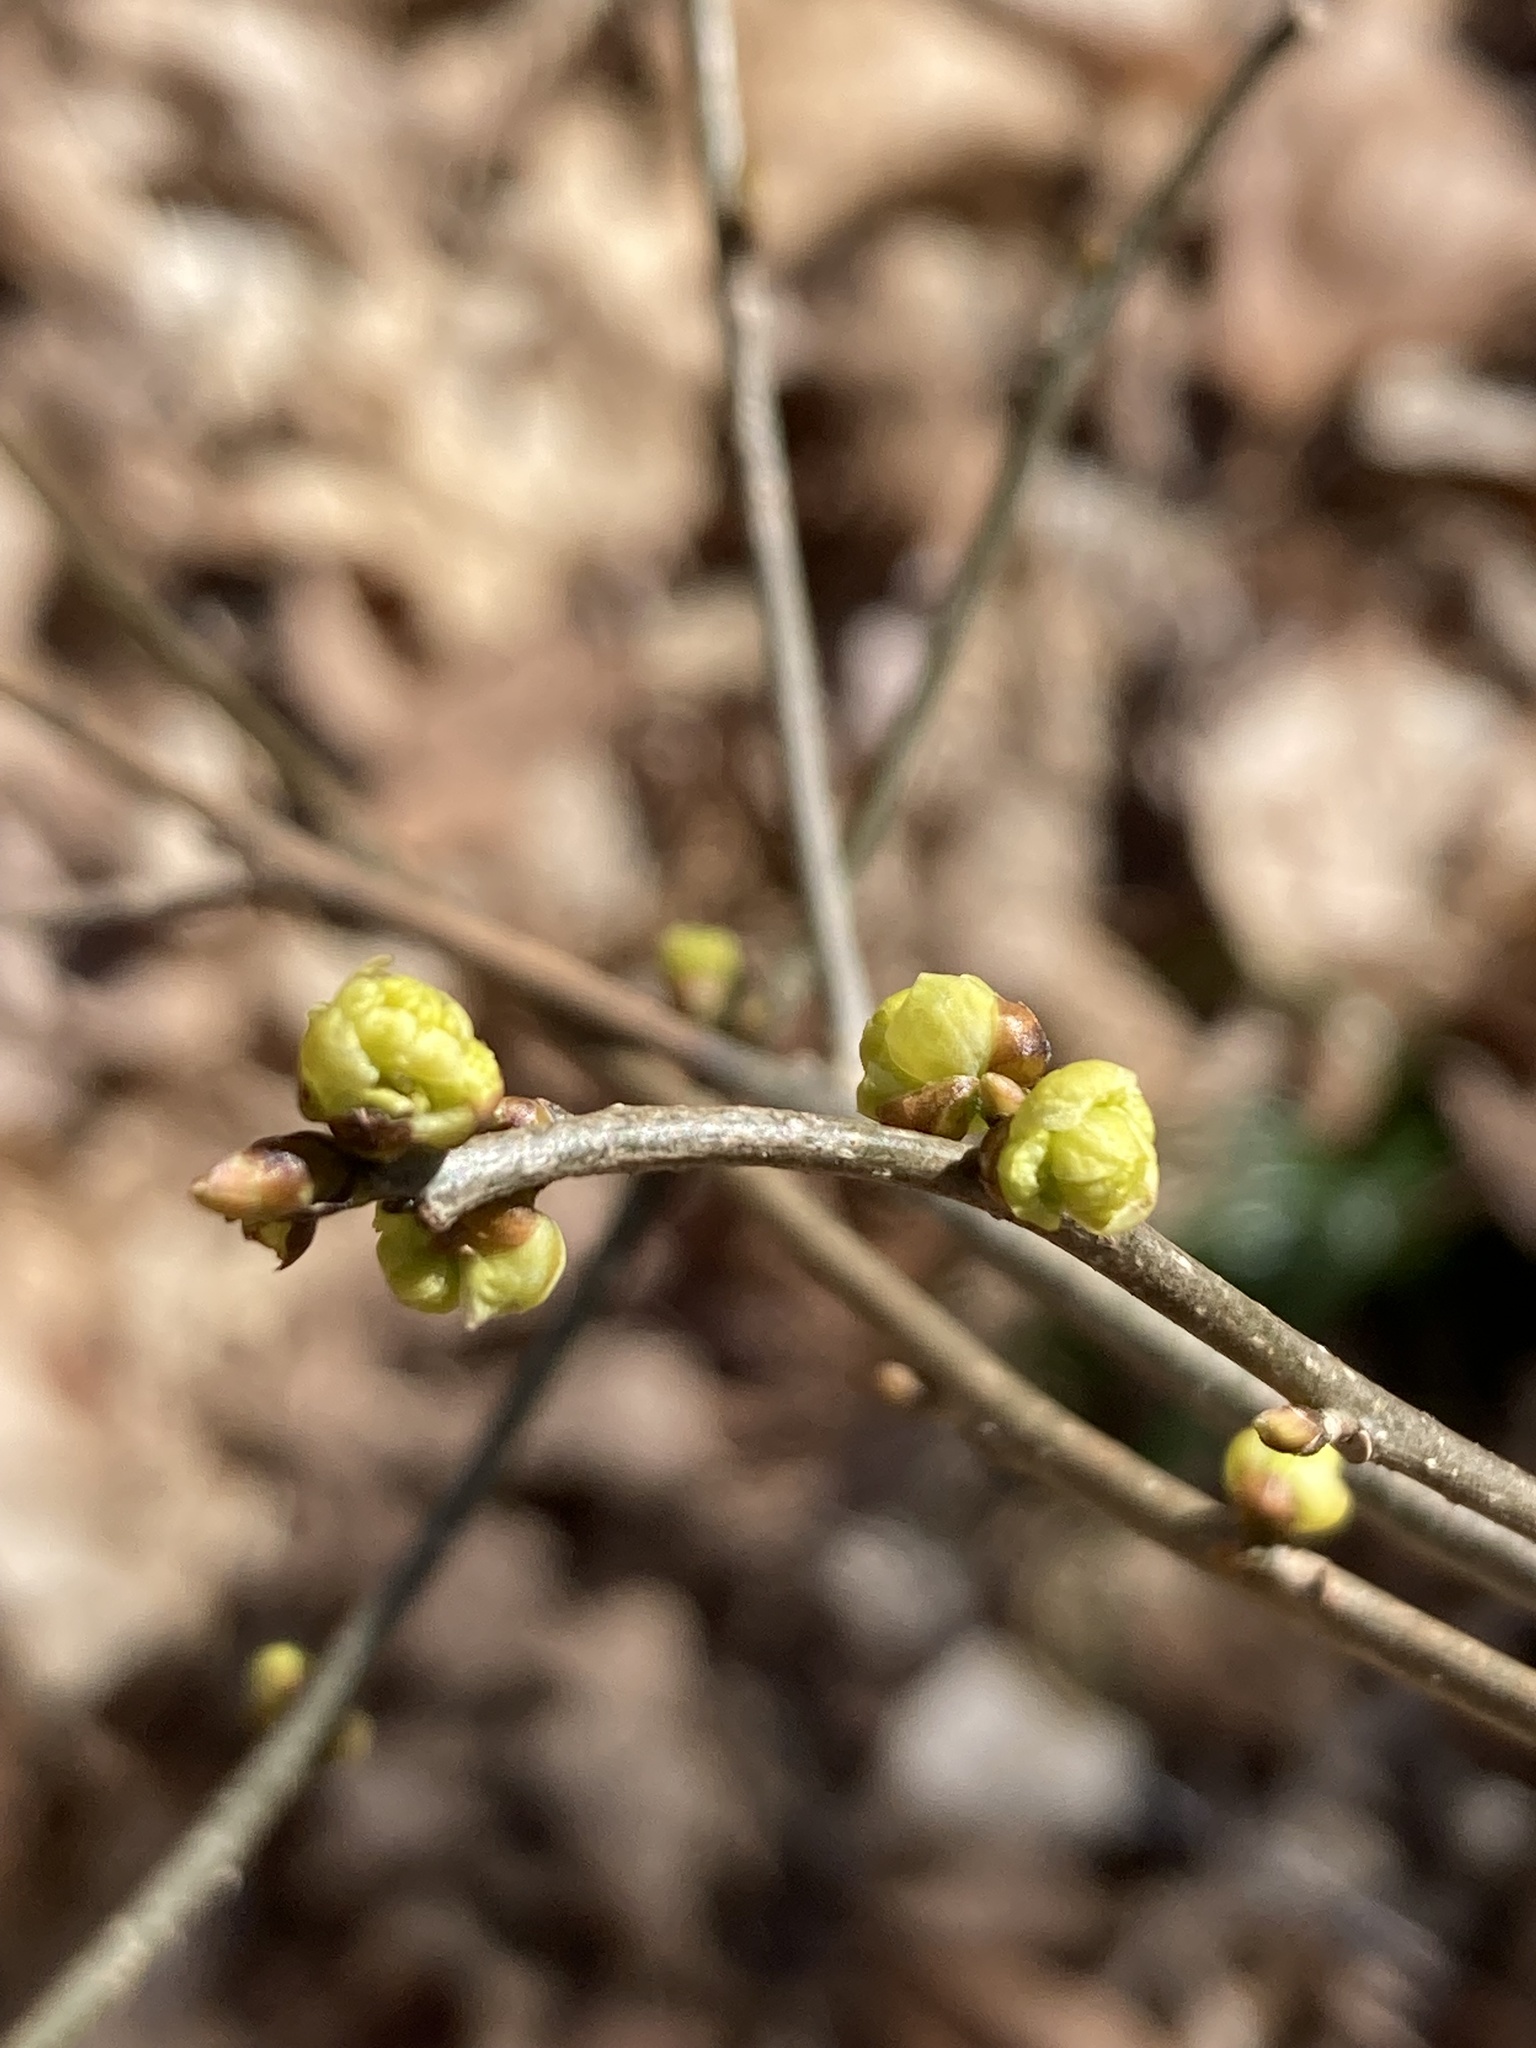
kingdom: Plantae
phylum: Tracheophyta
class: Magnoliopsida
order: Laurales
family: Lauraceae
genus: Lindera
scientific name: Lindera benzoin
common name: Spicebush
